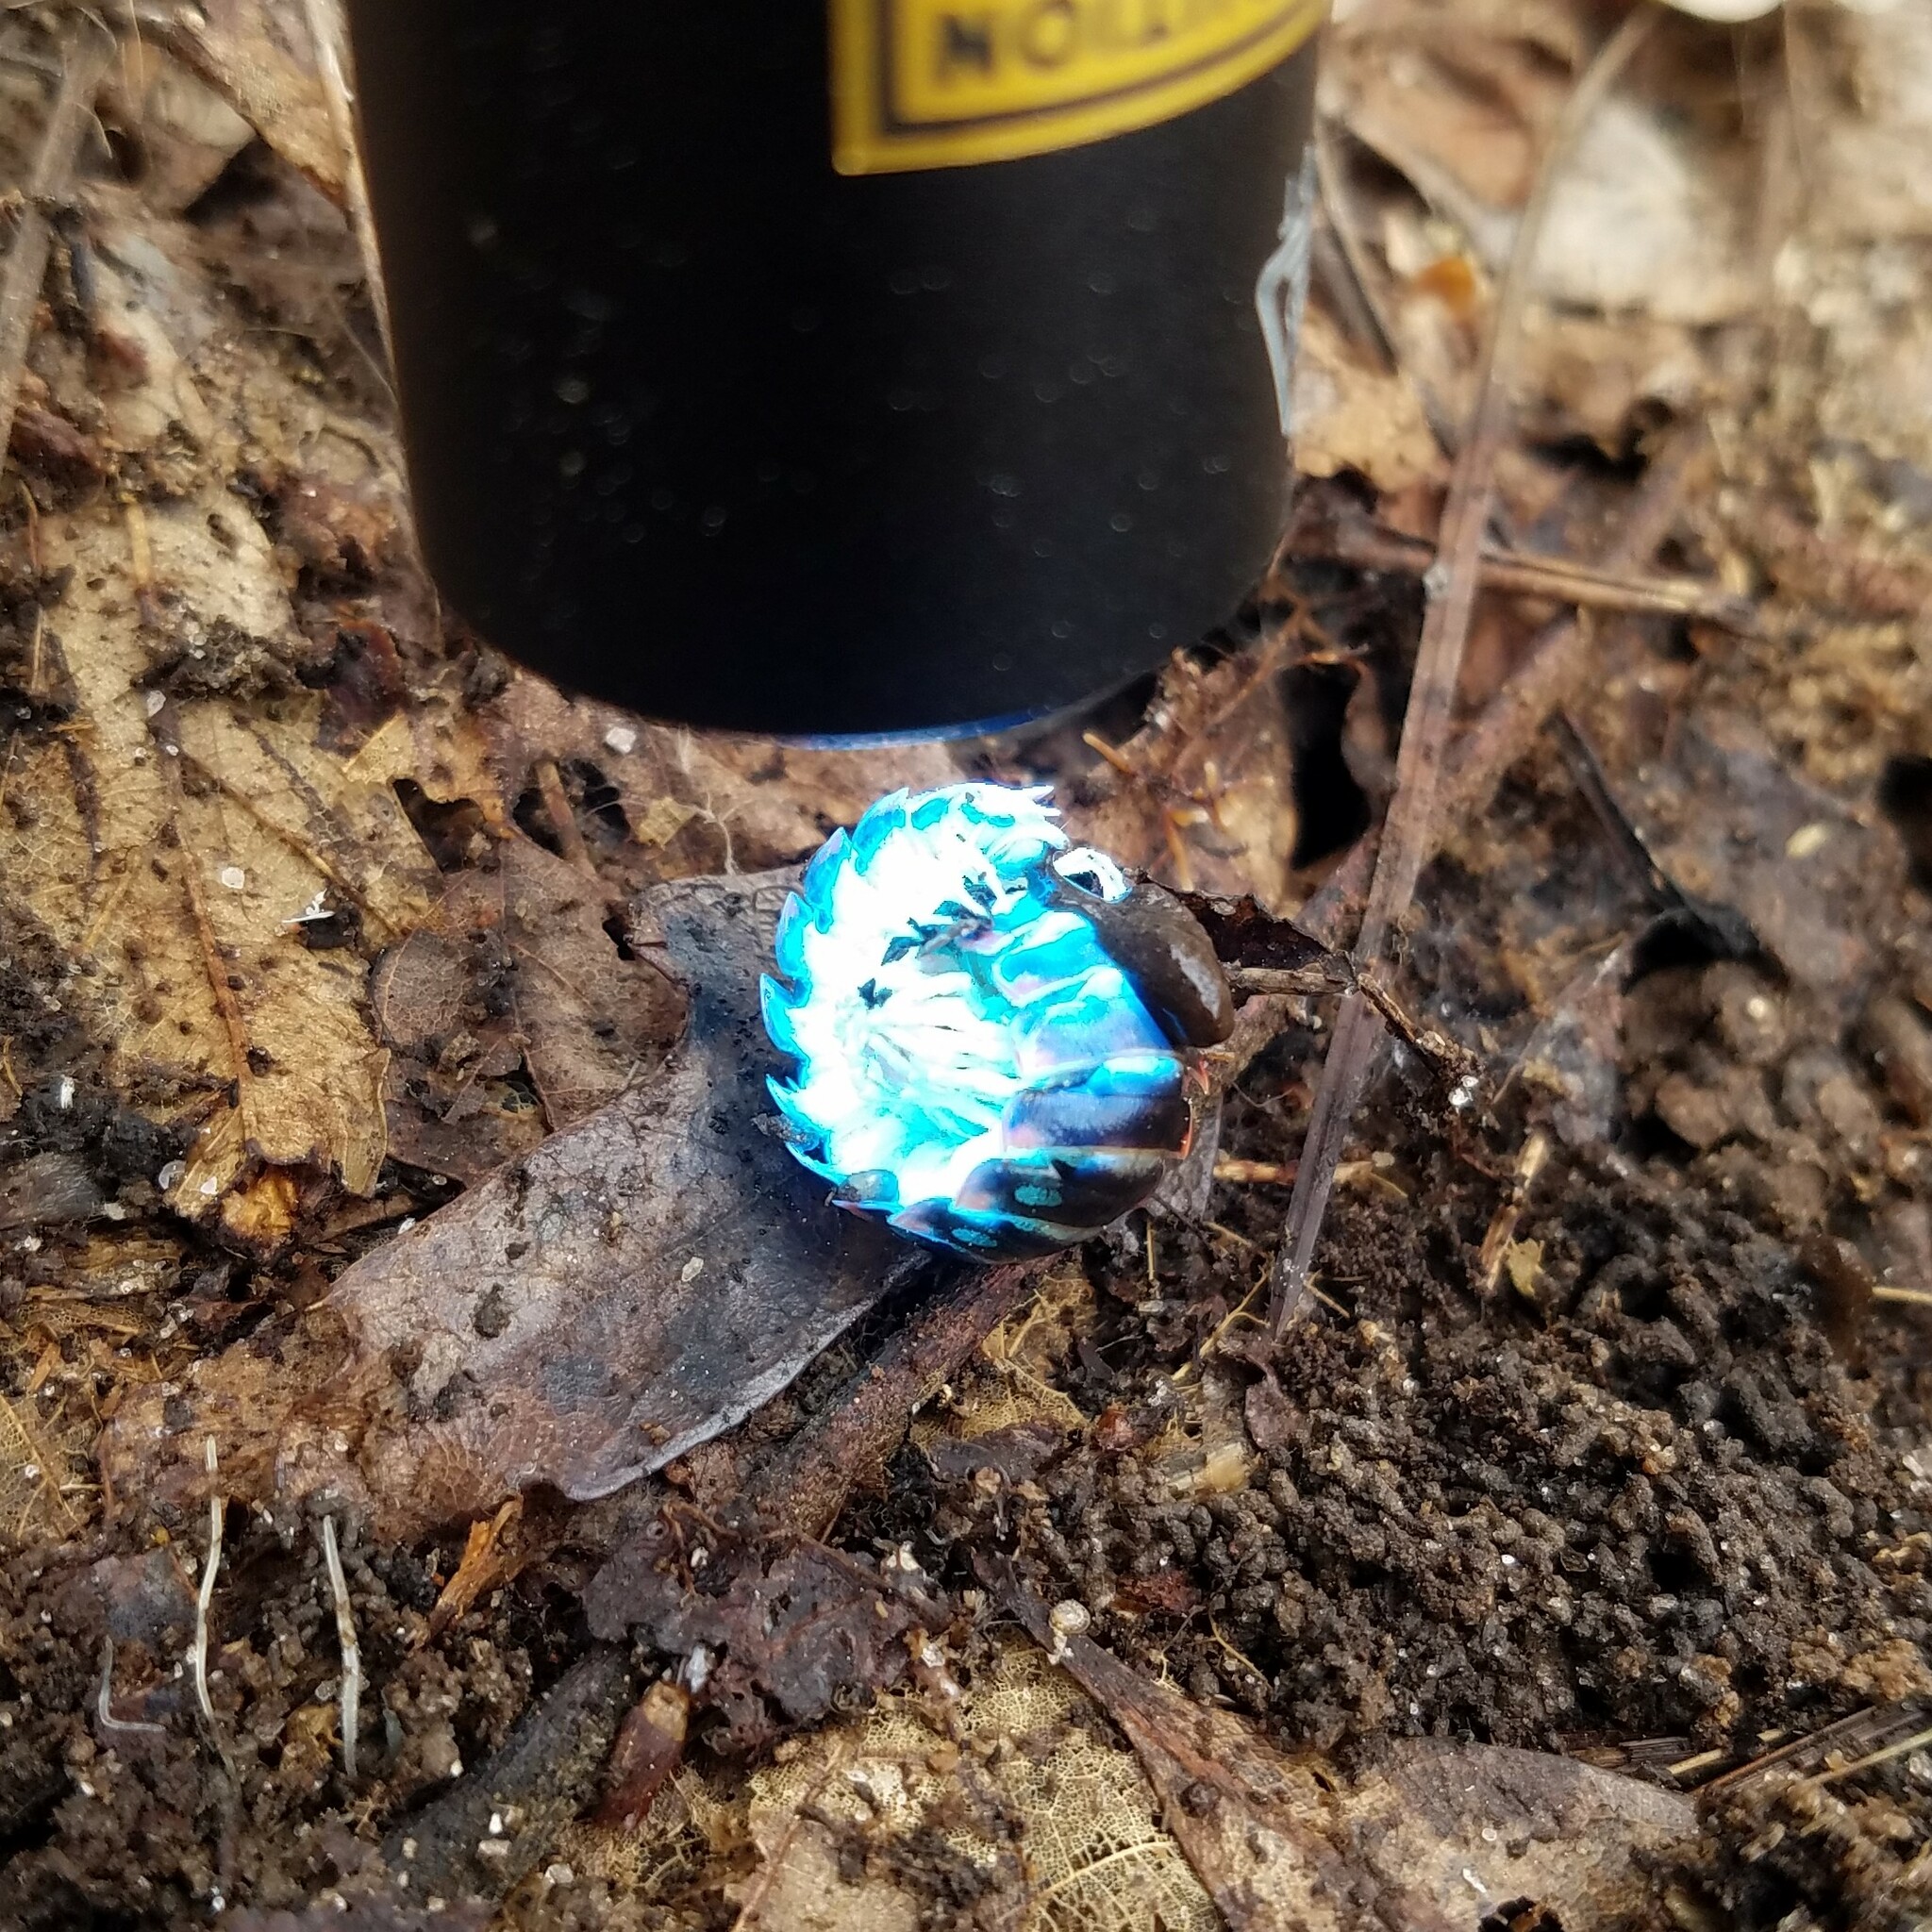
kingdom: Animalia
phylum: Arthropoda
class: Diplopoda
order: Polydesmida
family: Xystodesmidae
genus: Cherokia
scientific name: Cherokia georgiana
